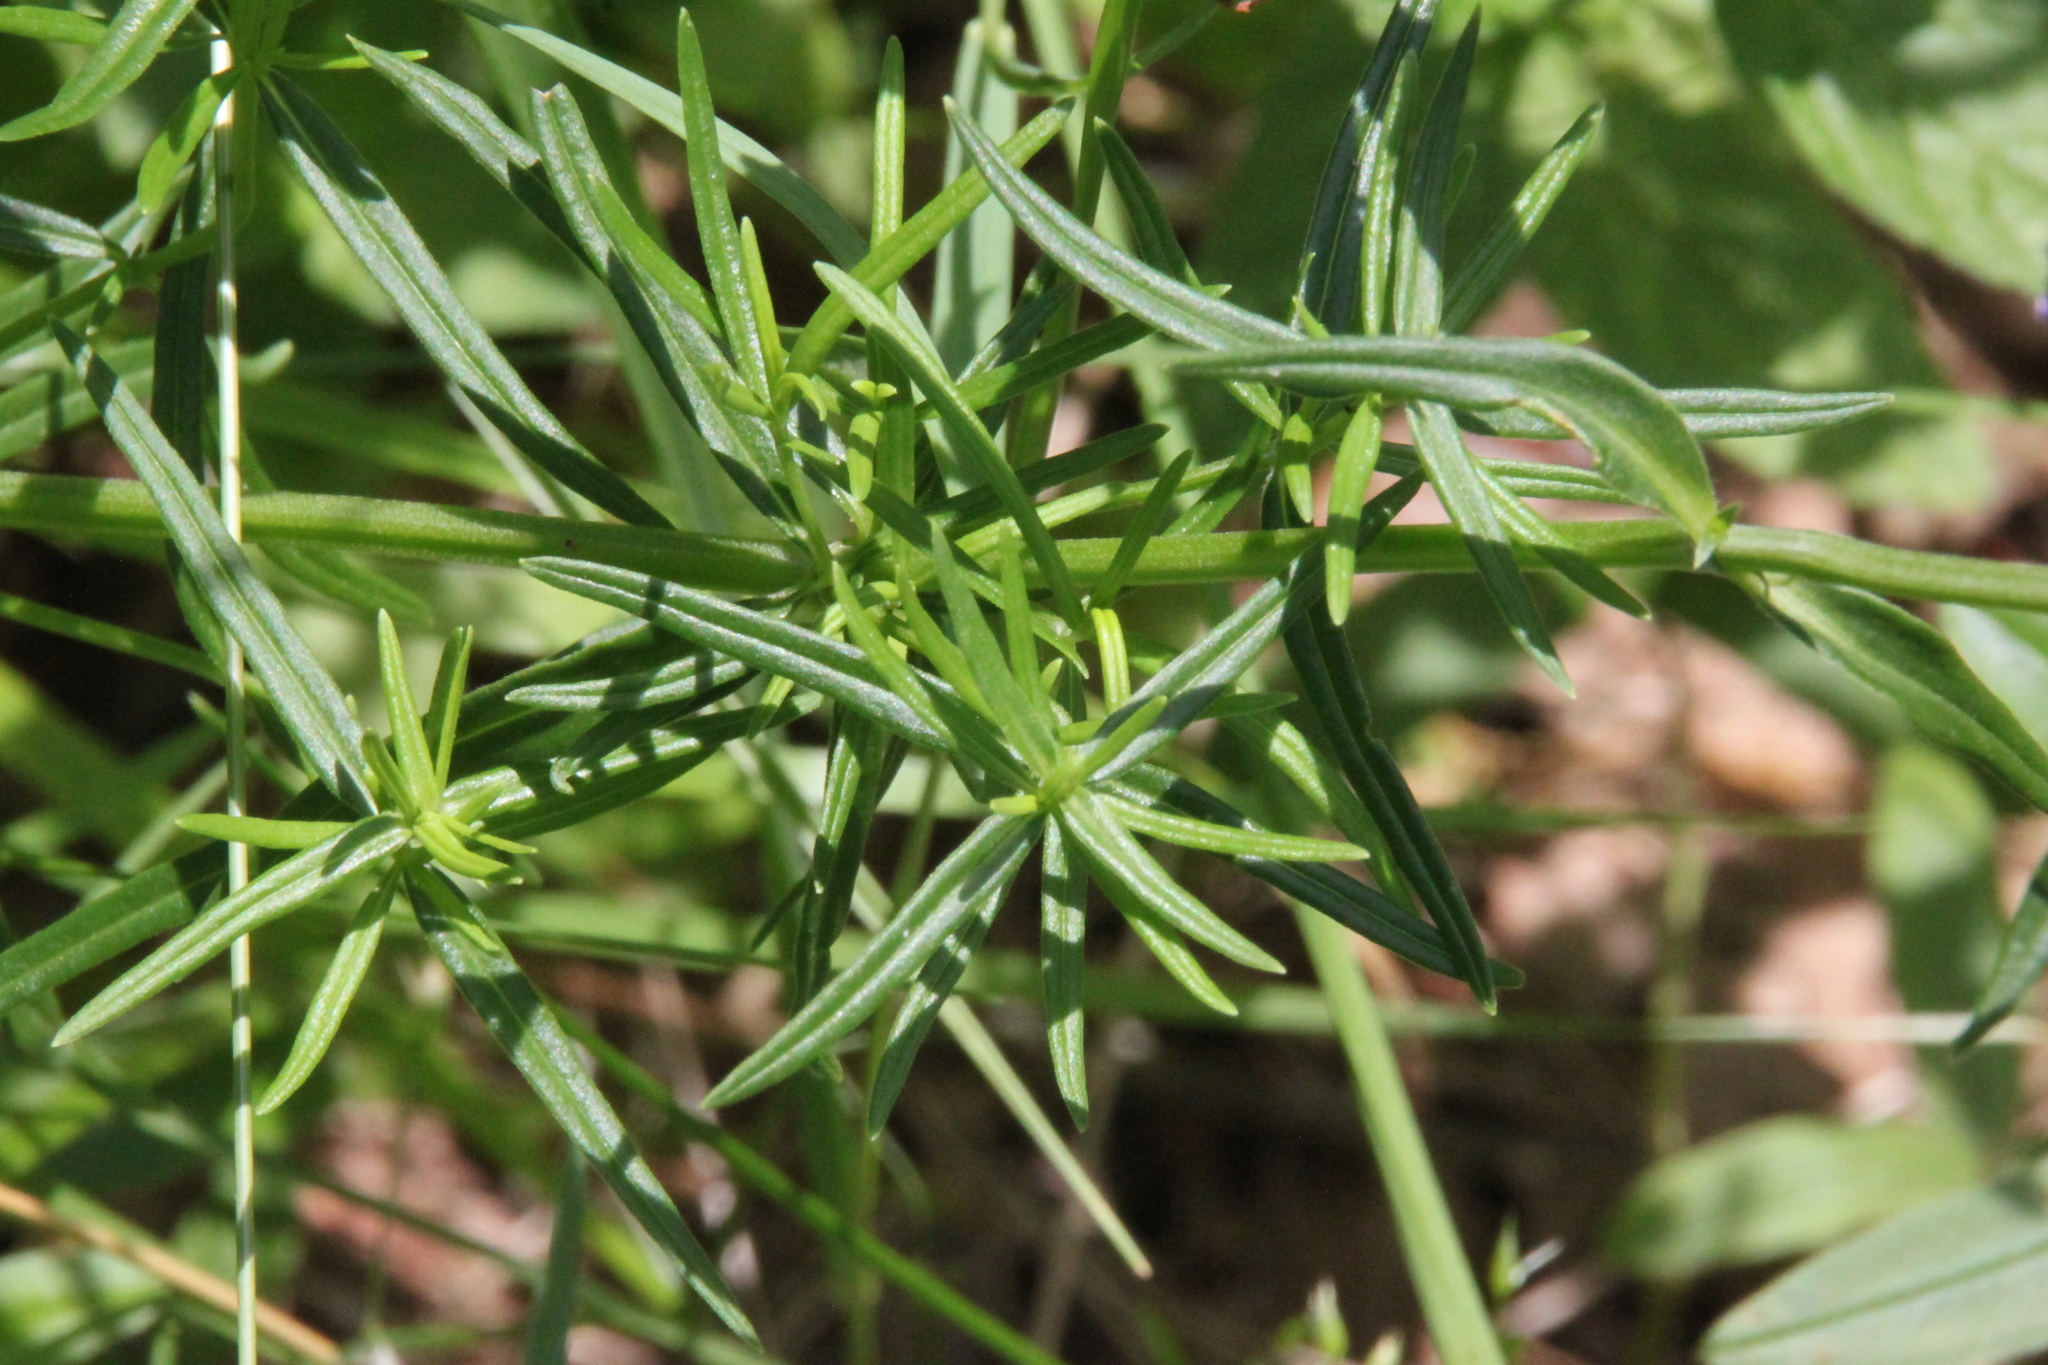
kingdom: Plantae
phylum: Tracheophyta
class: Magnoliopsida
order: Lamiales
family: Lamiaceae
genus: Dracocephalum
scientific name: Dracocephalum ruyschiana
